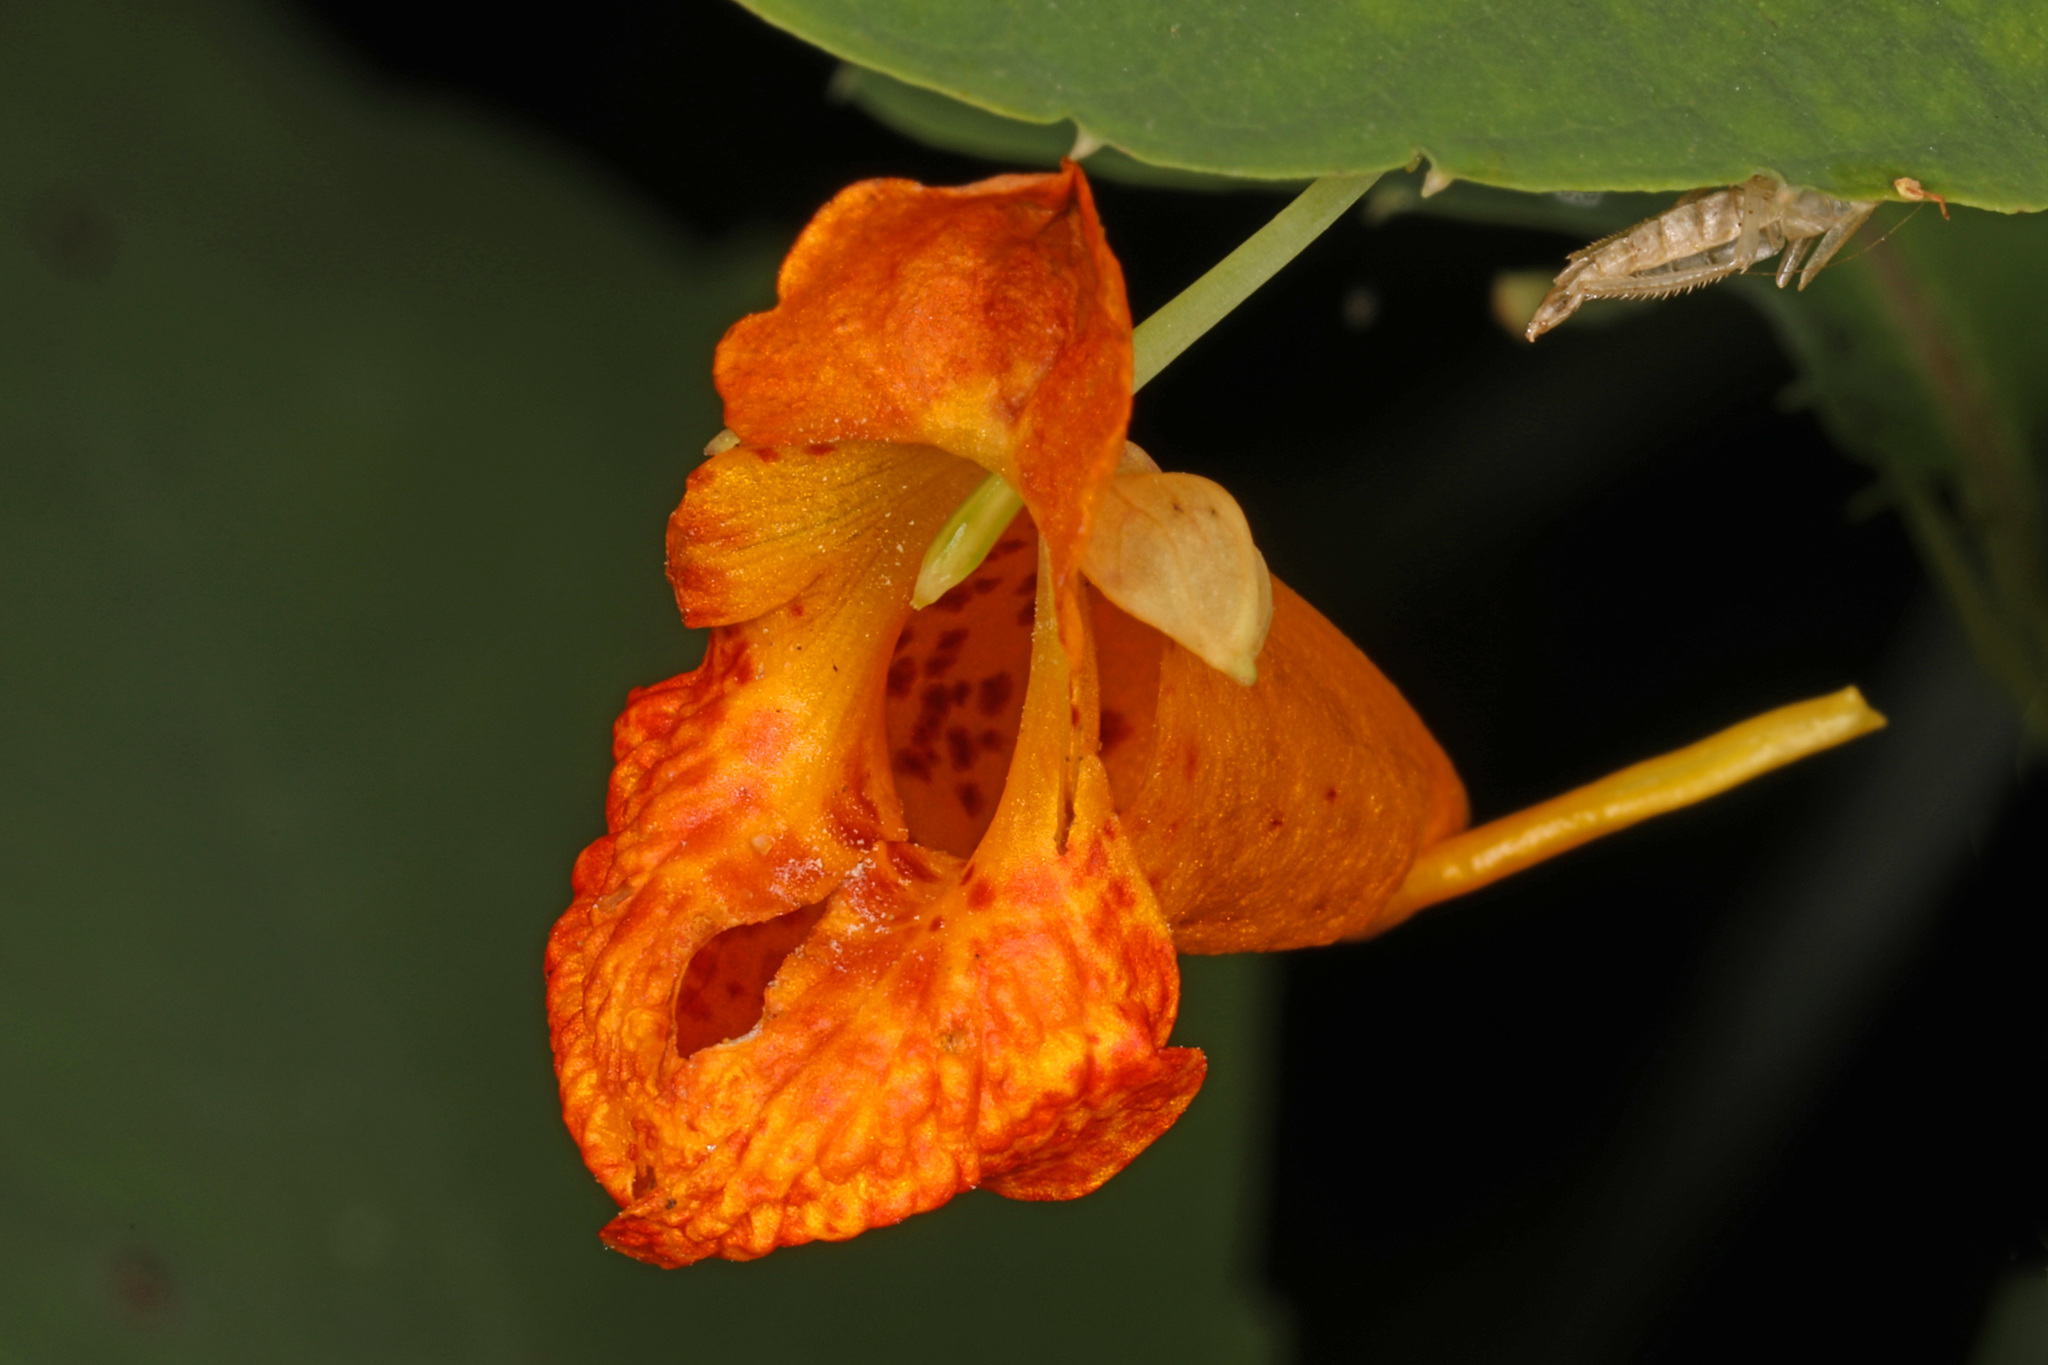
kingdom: Plantae
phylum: Tracheophyta
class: Magnoliopsida
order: Ericales
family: Balsaminaceae
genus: Impatiens
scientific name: Impatiens capensis
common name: Orange balsam
